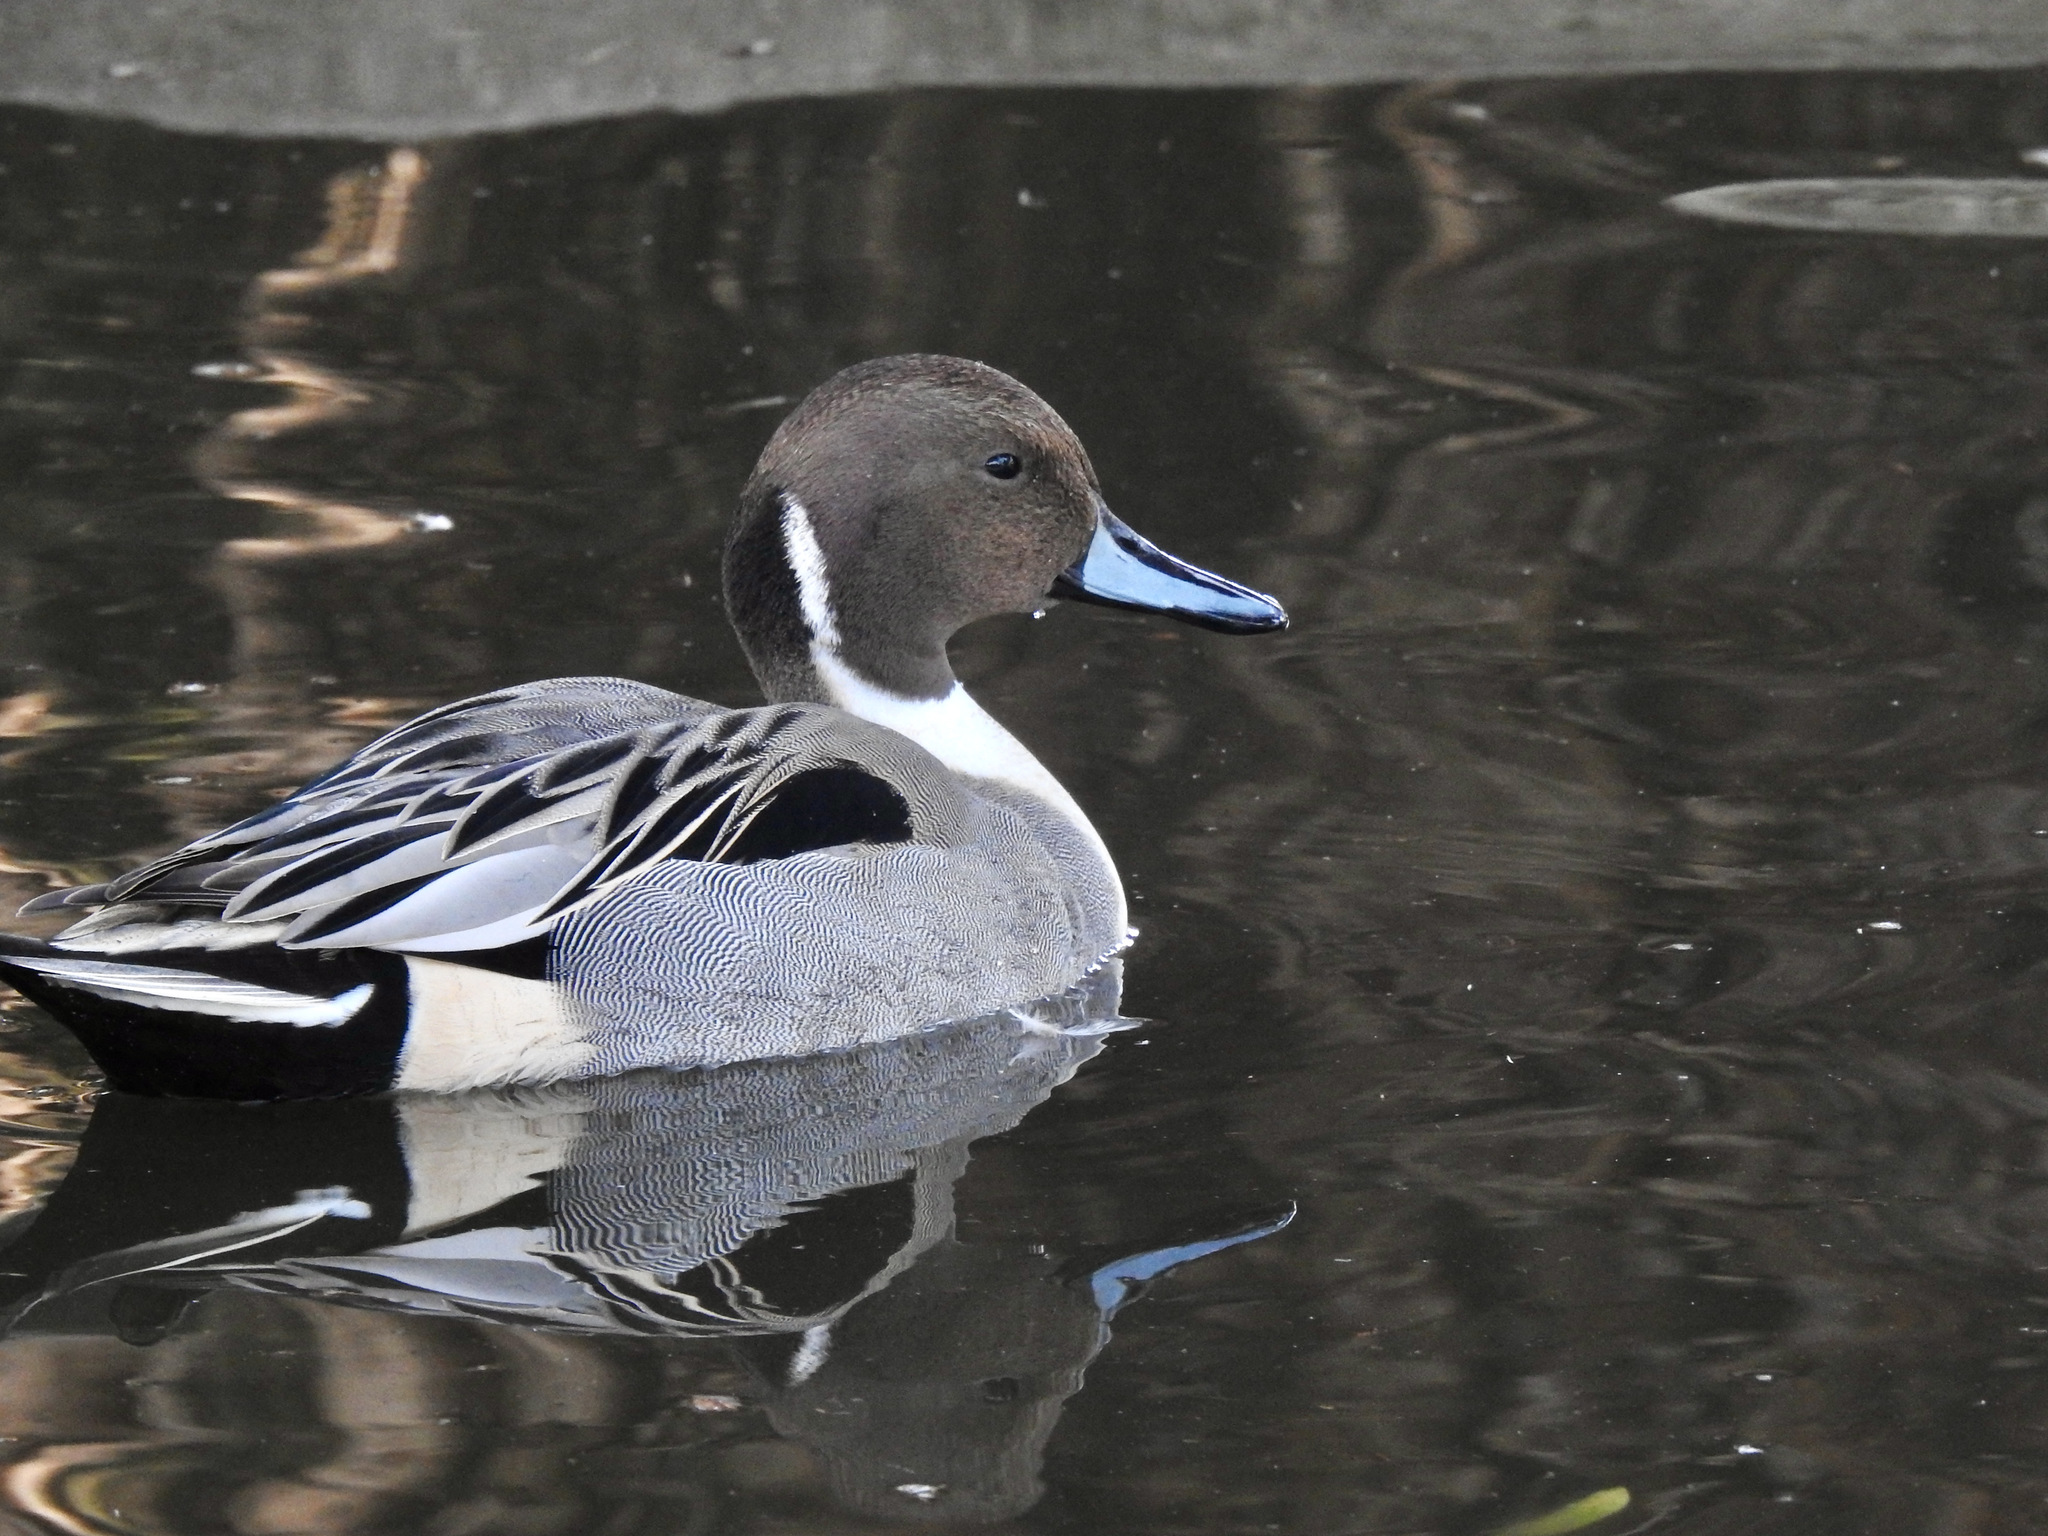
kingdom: Animalia
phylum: Chordata
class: Aves
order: Anseriformes
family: Anatidae
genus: Anas
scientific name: Anas acuta
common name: Northern pintail
